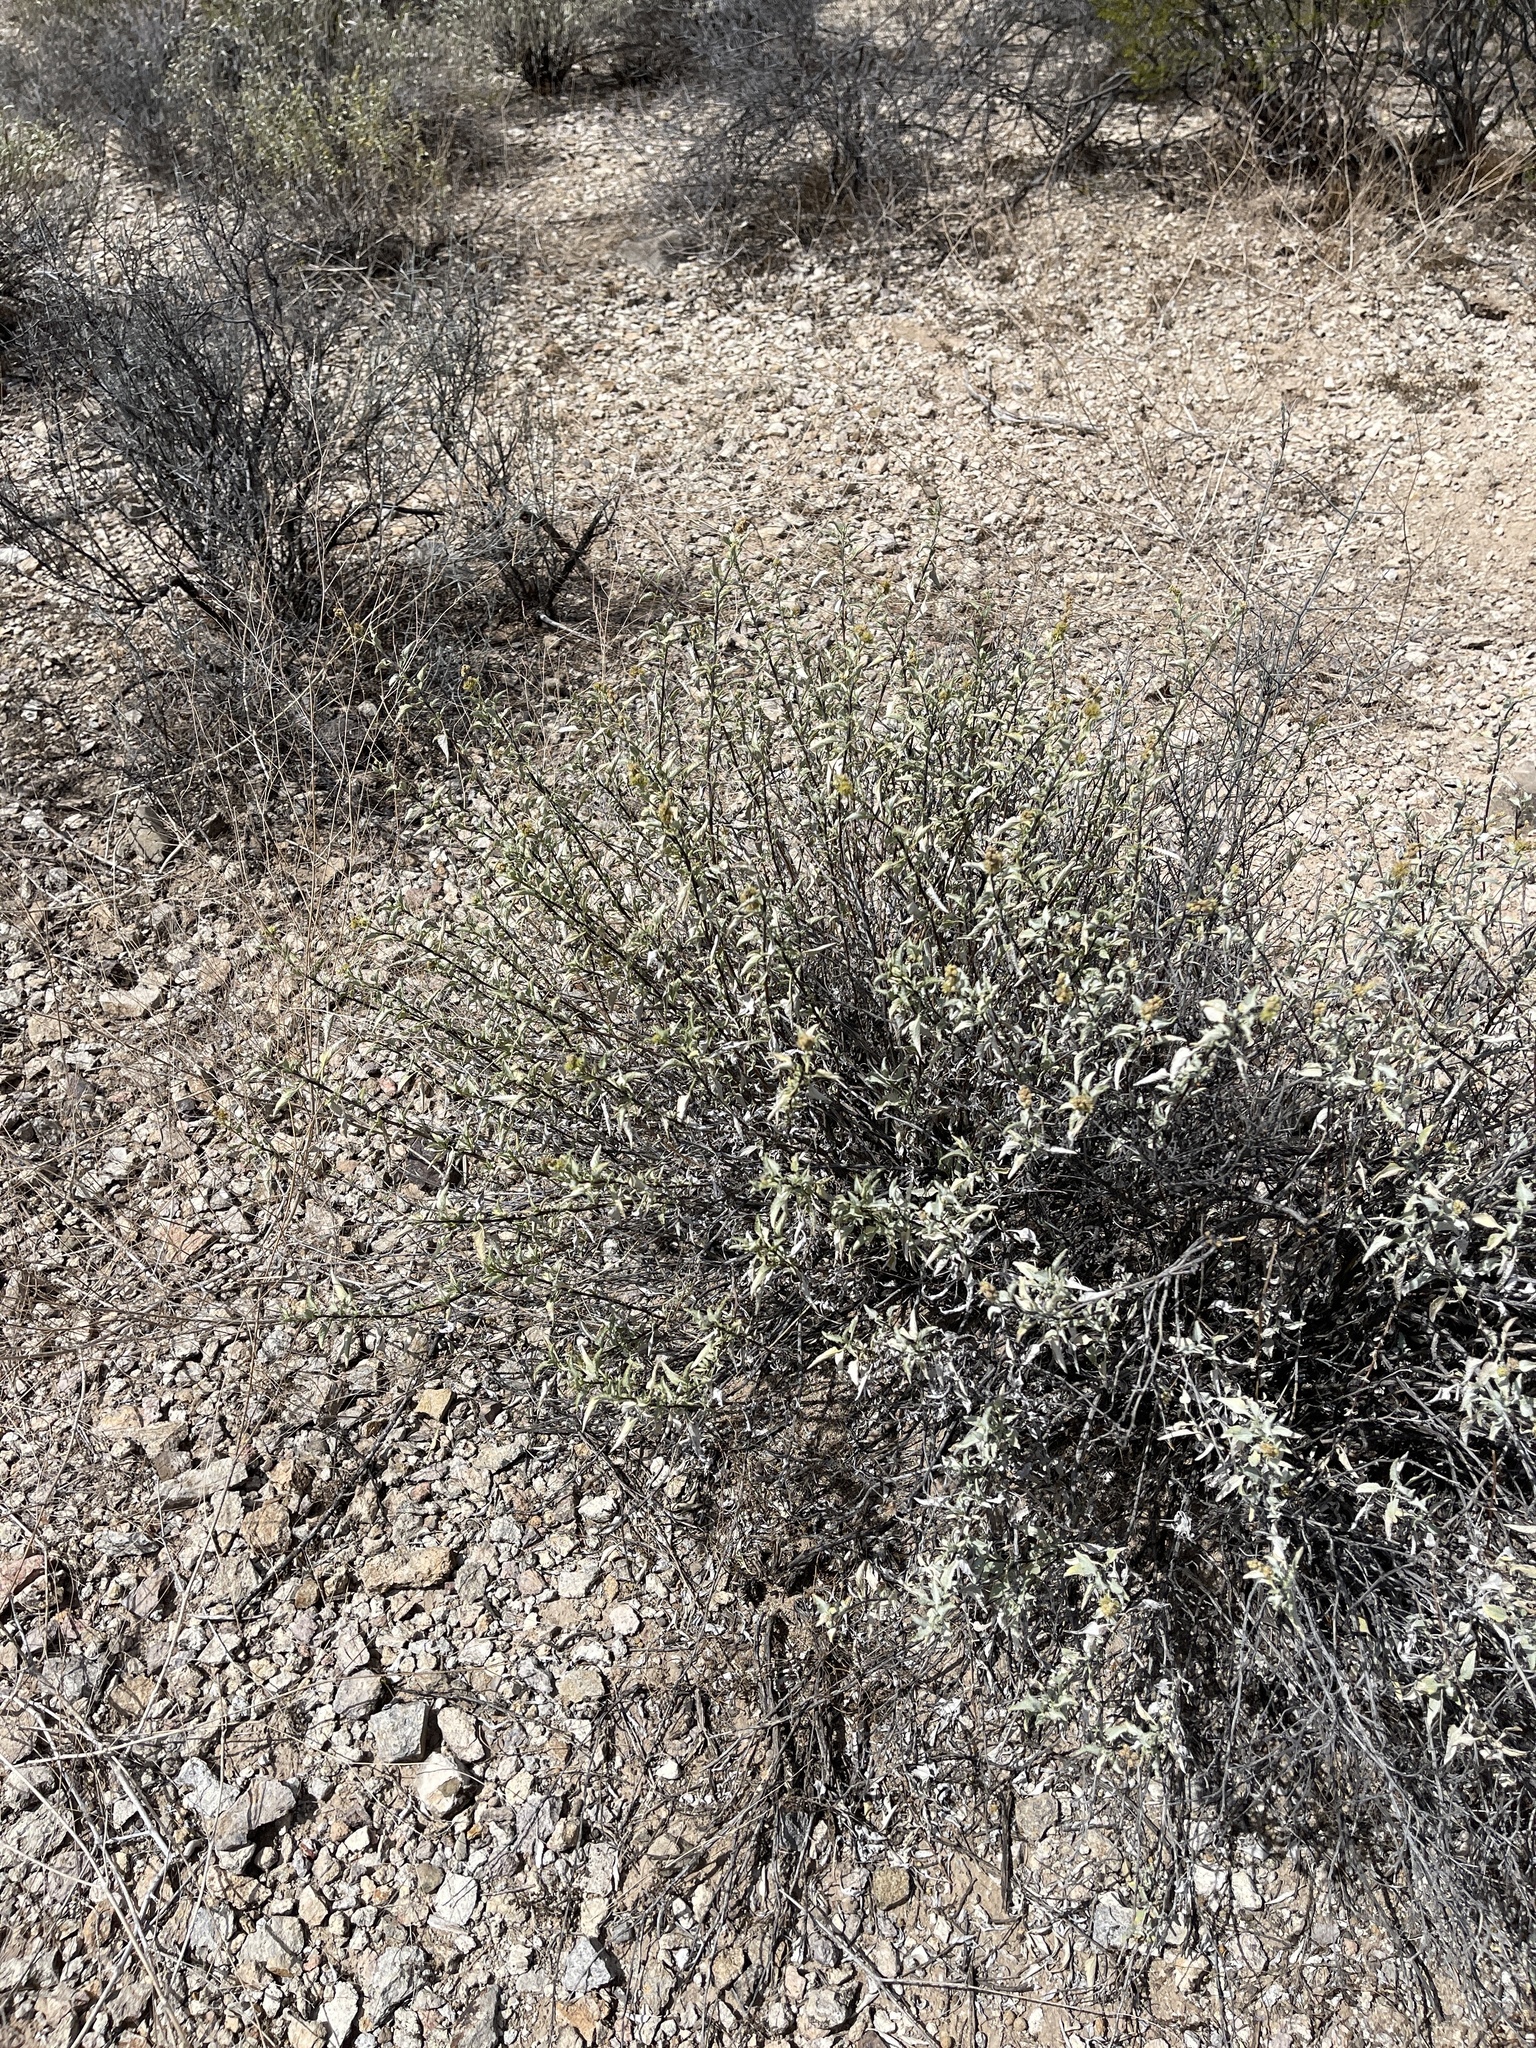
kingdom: Plantae
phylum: Tracheophyta
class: Magnoliopsida
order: Asterales
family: Asteraceae
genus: Ambrosia
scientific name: Ambrosia deltoidea
